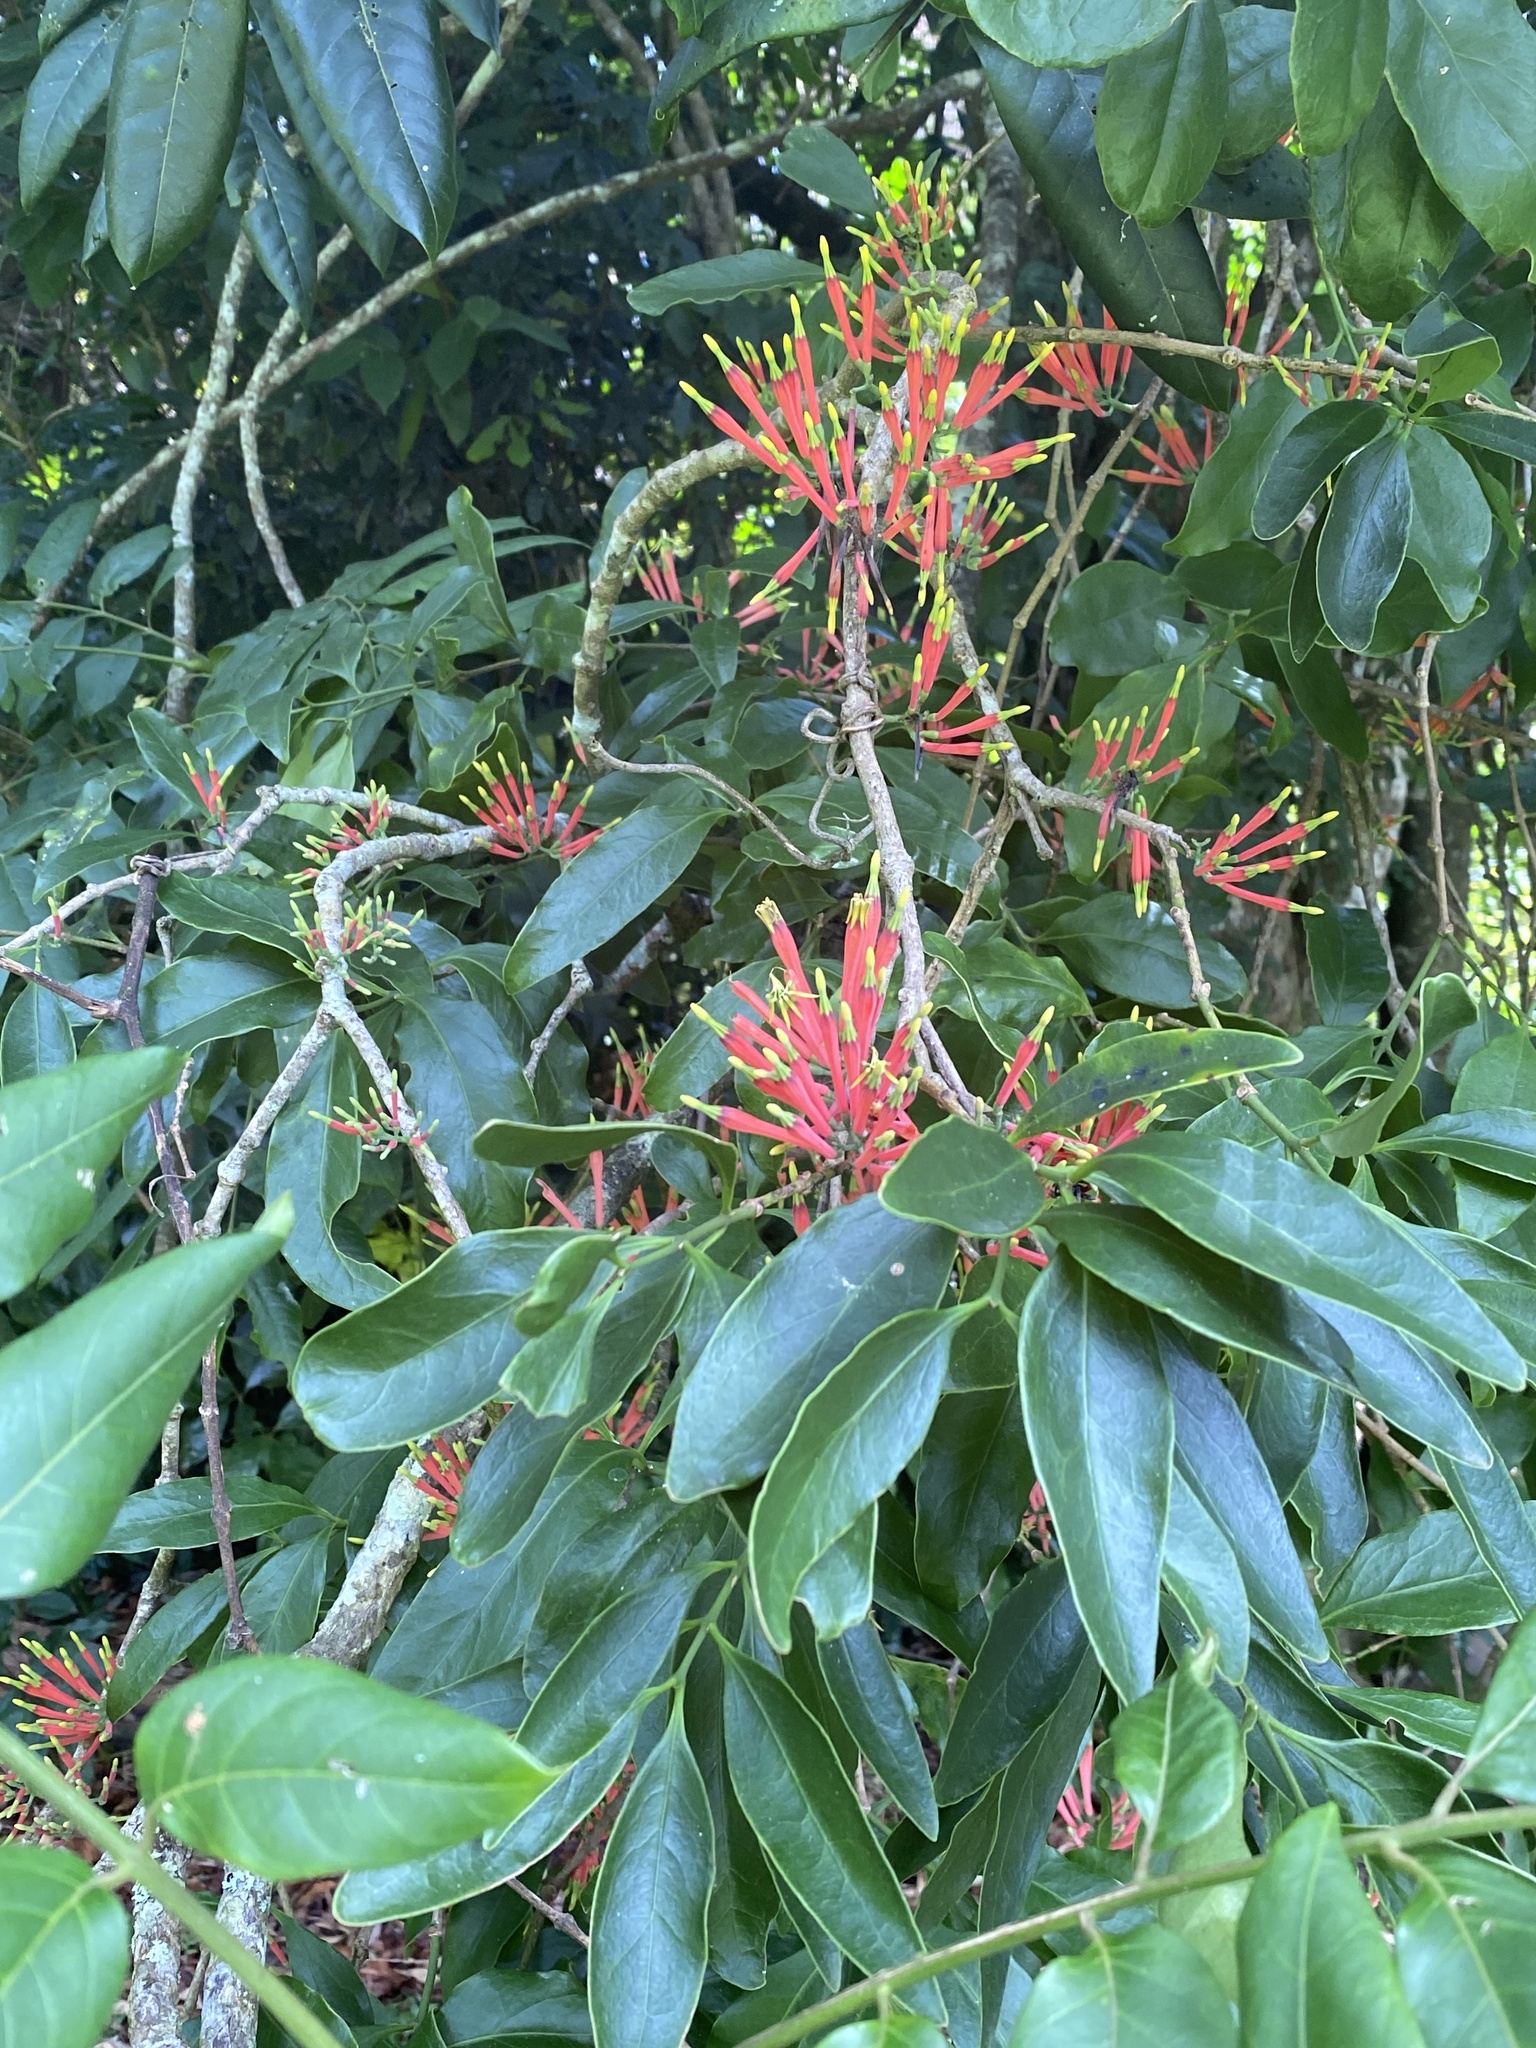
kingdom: Plantae
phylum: Tracheophyta
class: Magnoliopsida
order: Santalales
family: Loranthaceae
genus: Amylotheca
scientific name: Amylotheca dictyophleba
